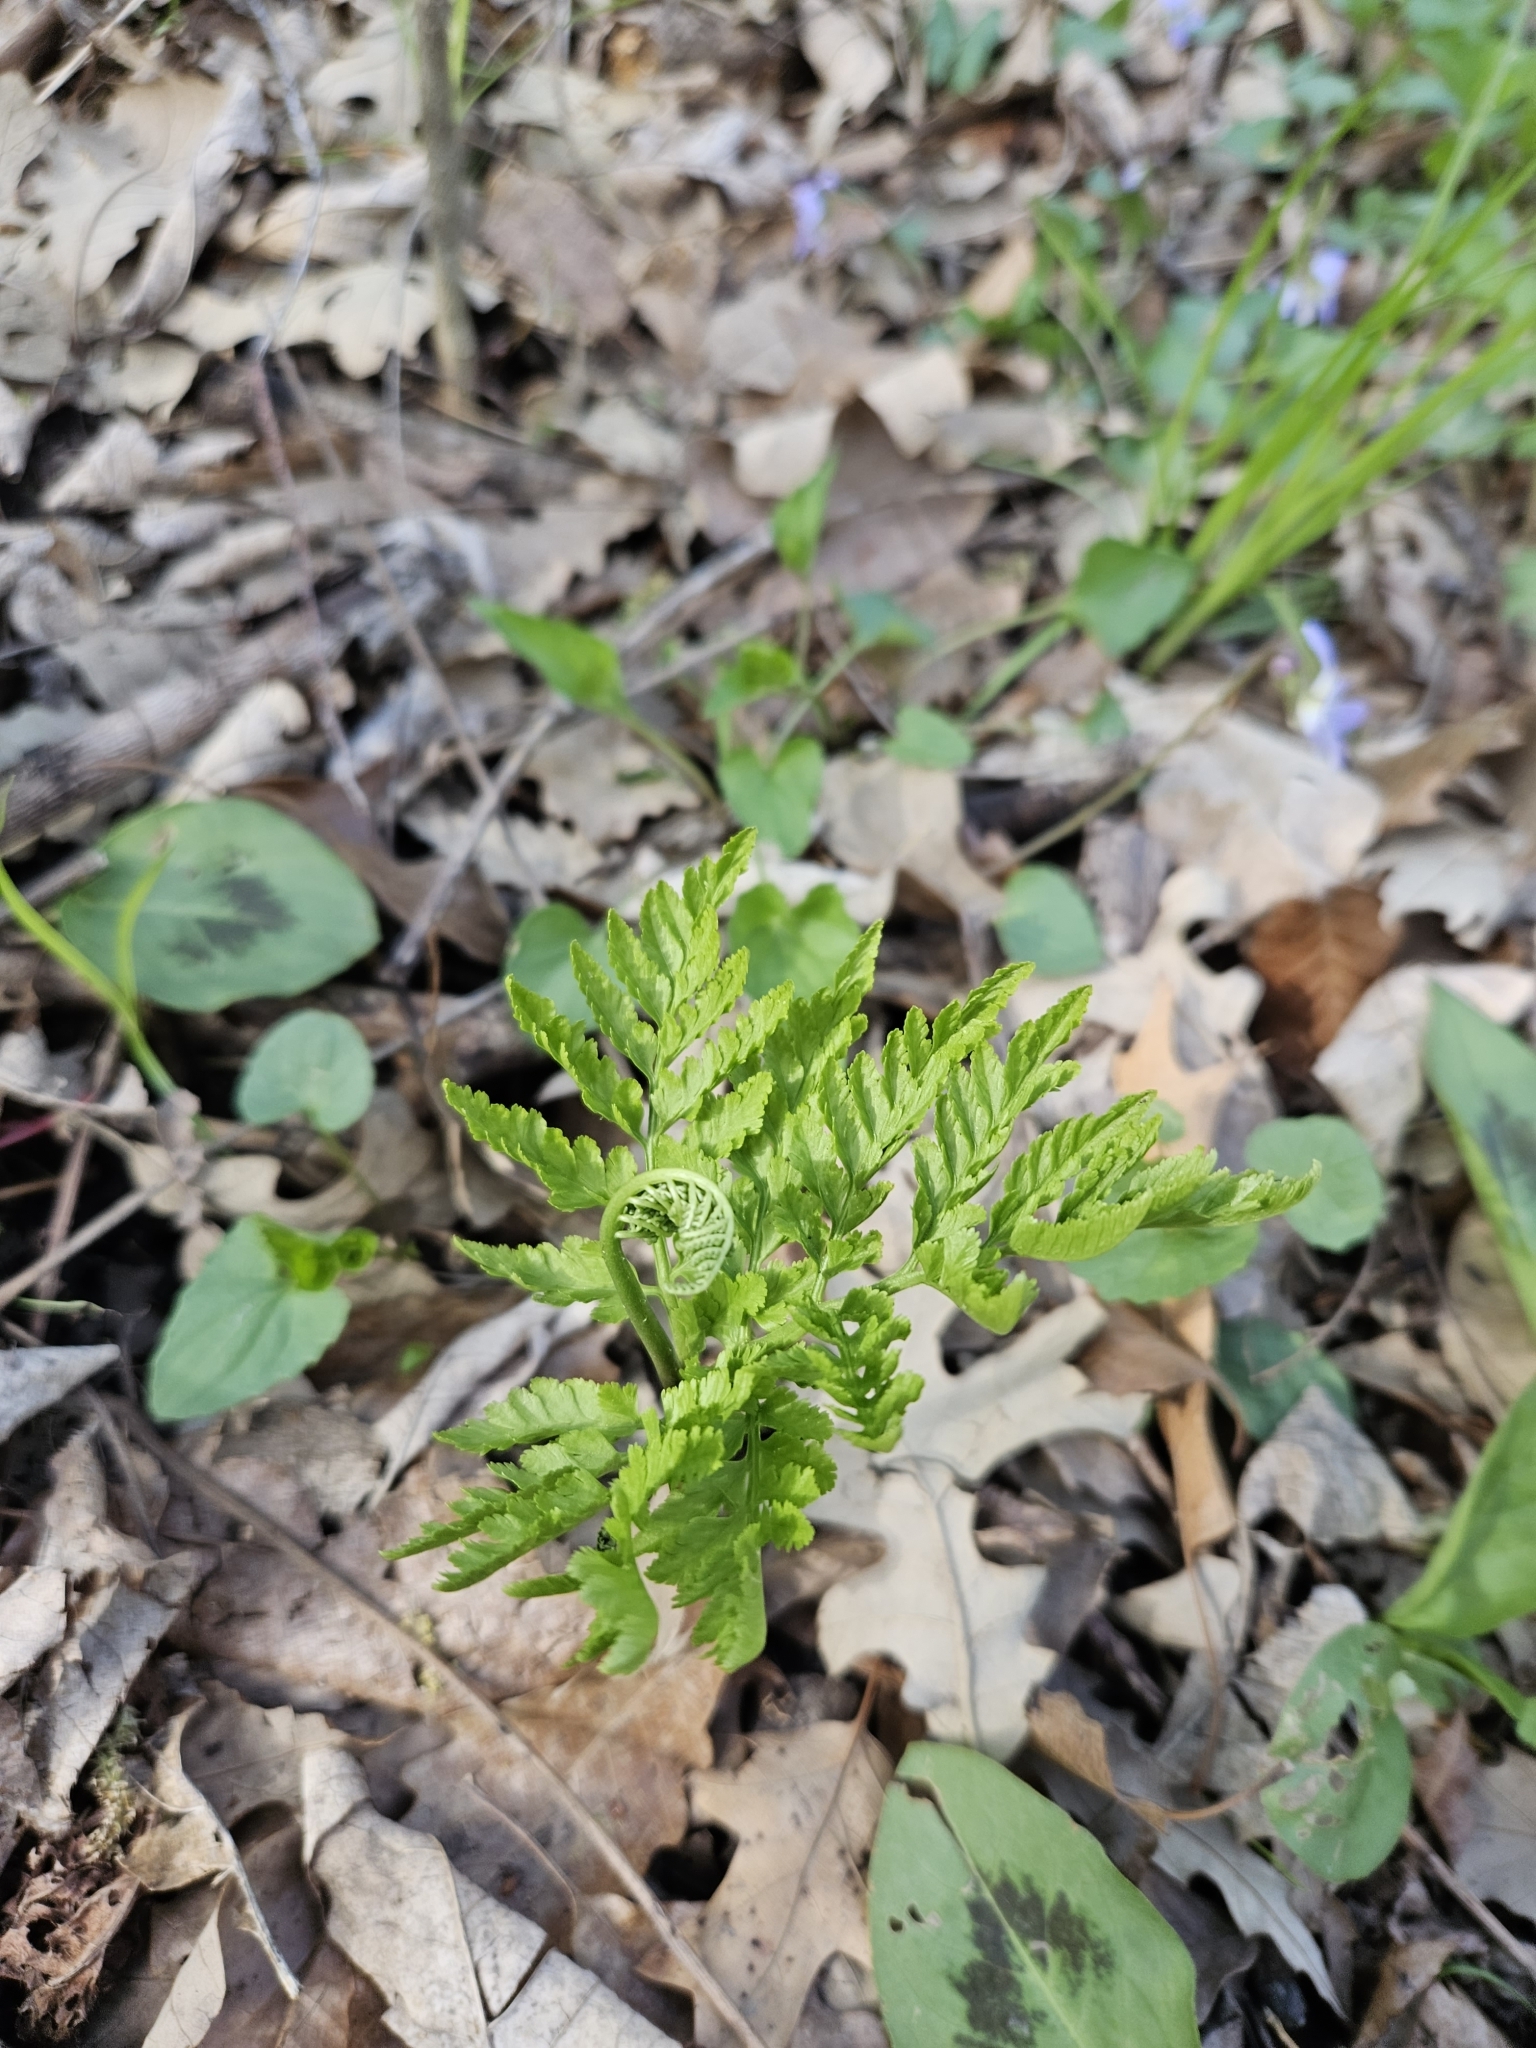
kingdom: Plantae
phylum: Tracheophyta
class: Polypodiopsida
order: Ophioglossales
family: Ophioglossaceae
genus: Botrypus
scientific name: Botrypus virginianus
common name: Common grapefern
